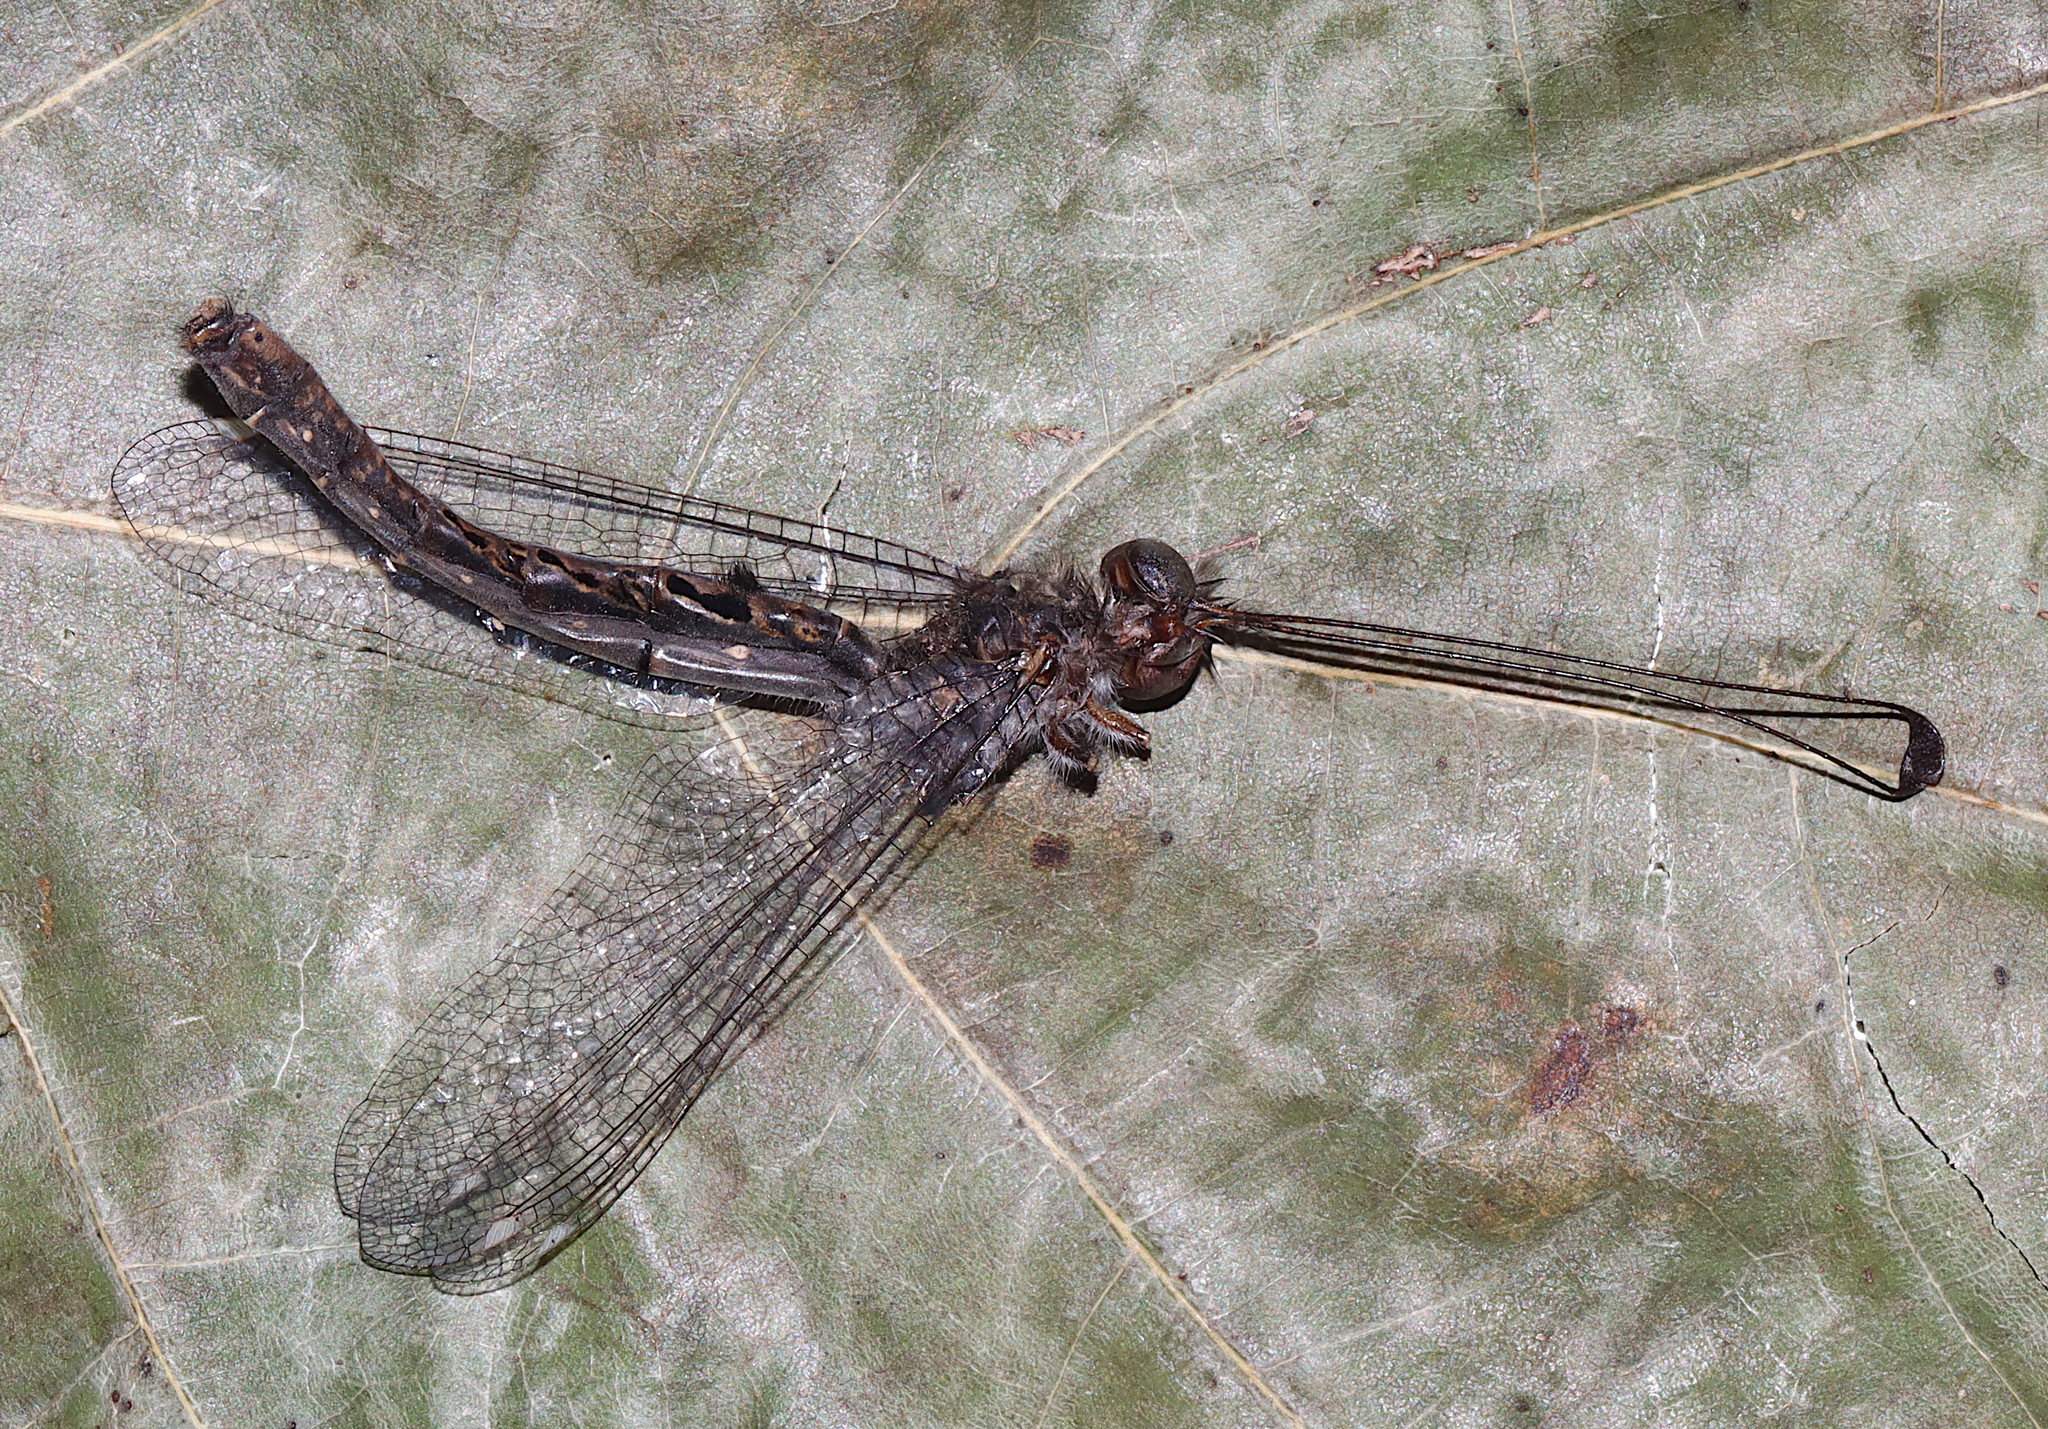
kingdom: Animalia
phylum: Arthropoda
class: Insecta
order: Neuroptera
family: Ascalaphidae
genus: Ululodes
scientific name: Ululodes quadripunctatus
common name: Four-spotted owlfly
